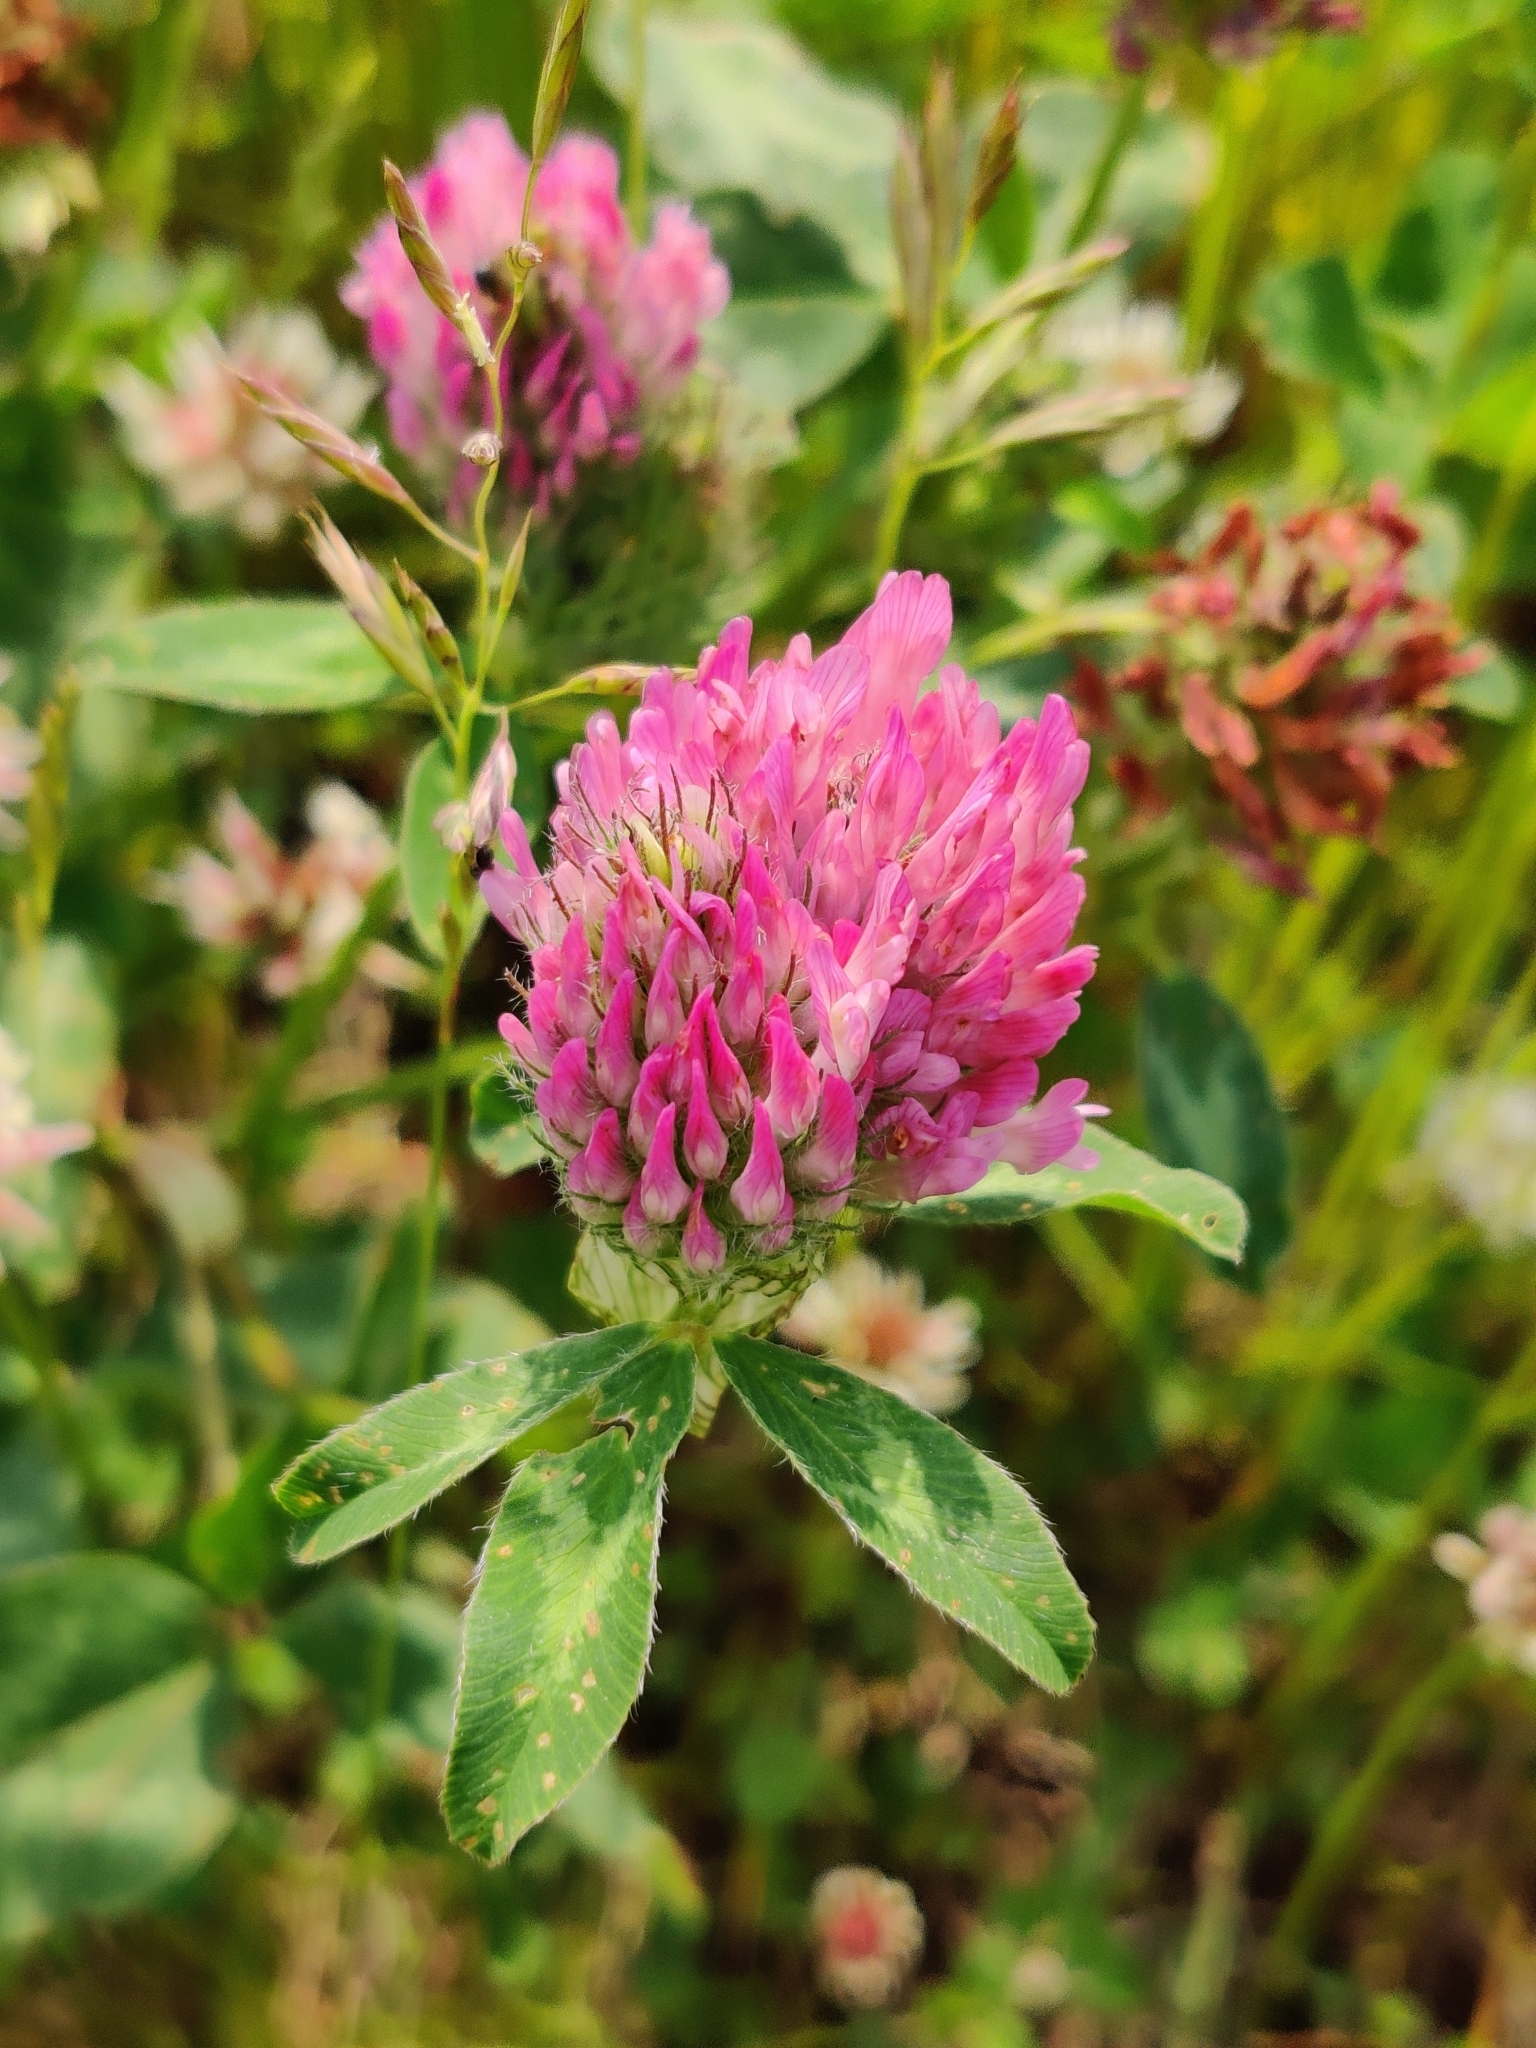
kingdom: Plantae
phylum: Tracheophyta
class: Magnoliopsida
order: Fabales
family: Fabaceae
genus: Trifolium
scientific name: Trifolium pratense
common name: Red clover
